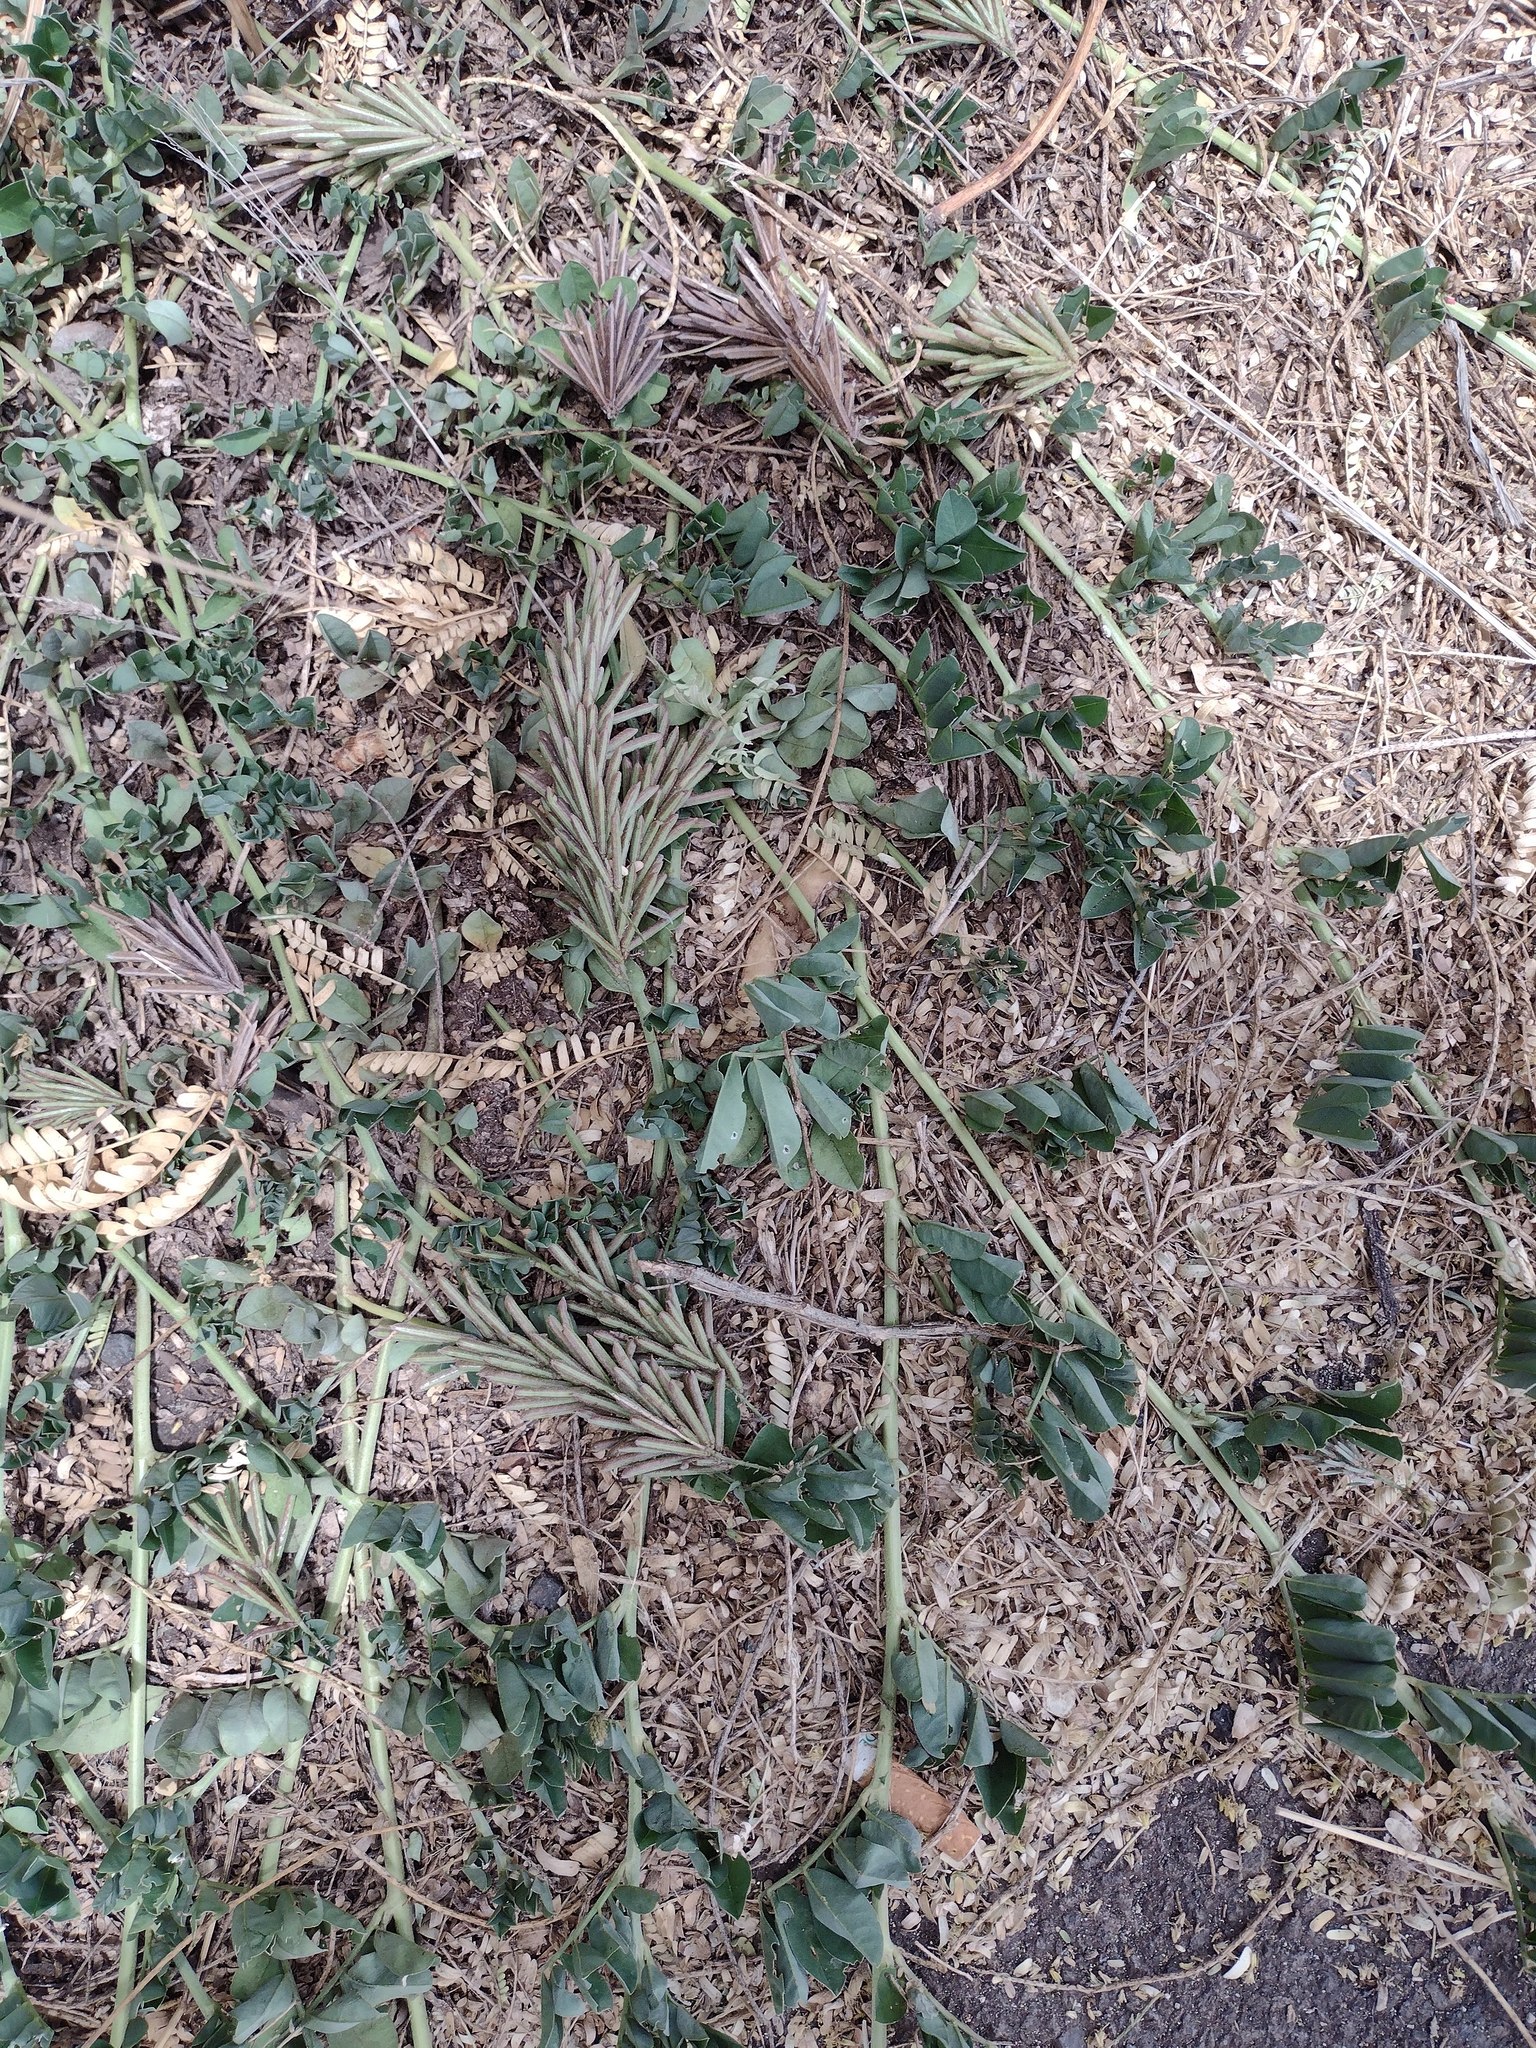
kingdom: Plantae
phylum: Tracheophyta
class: Magnoliopsida
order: Fabales
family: Fabaceae
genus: Indigofera
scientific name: Indigofera spicata
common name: Creeping indigo
